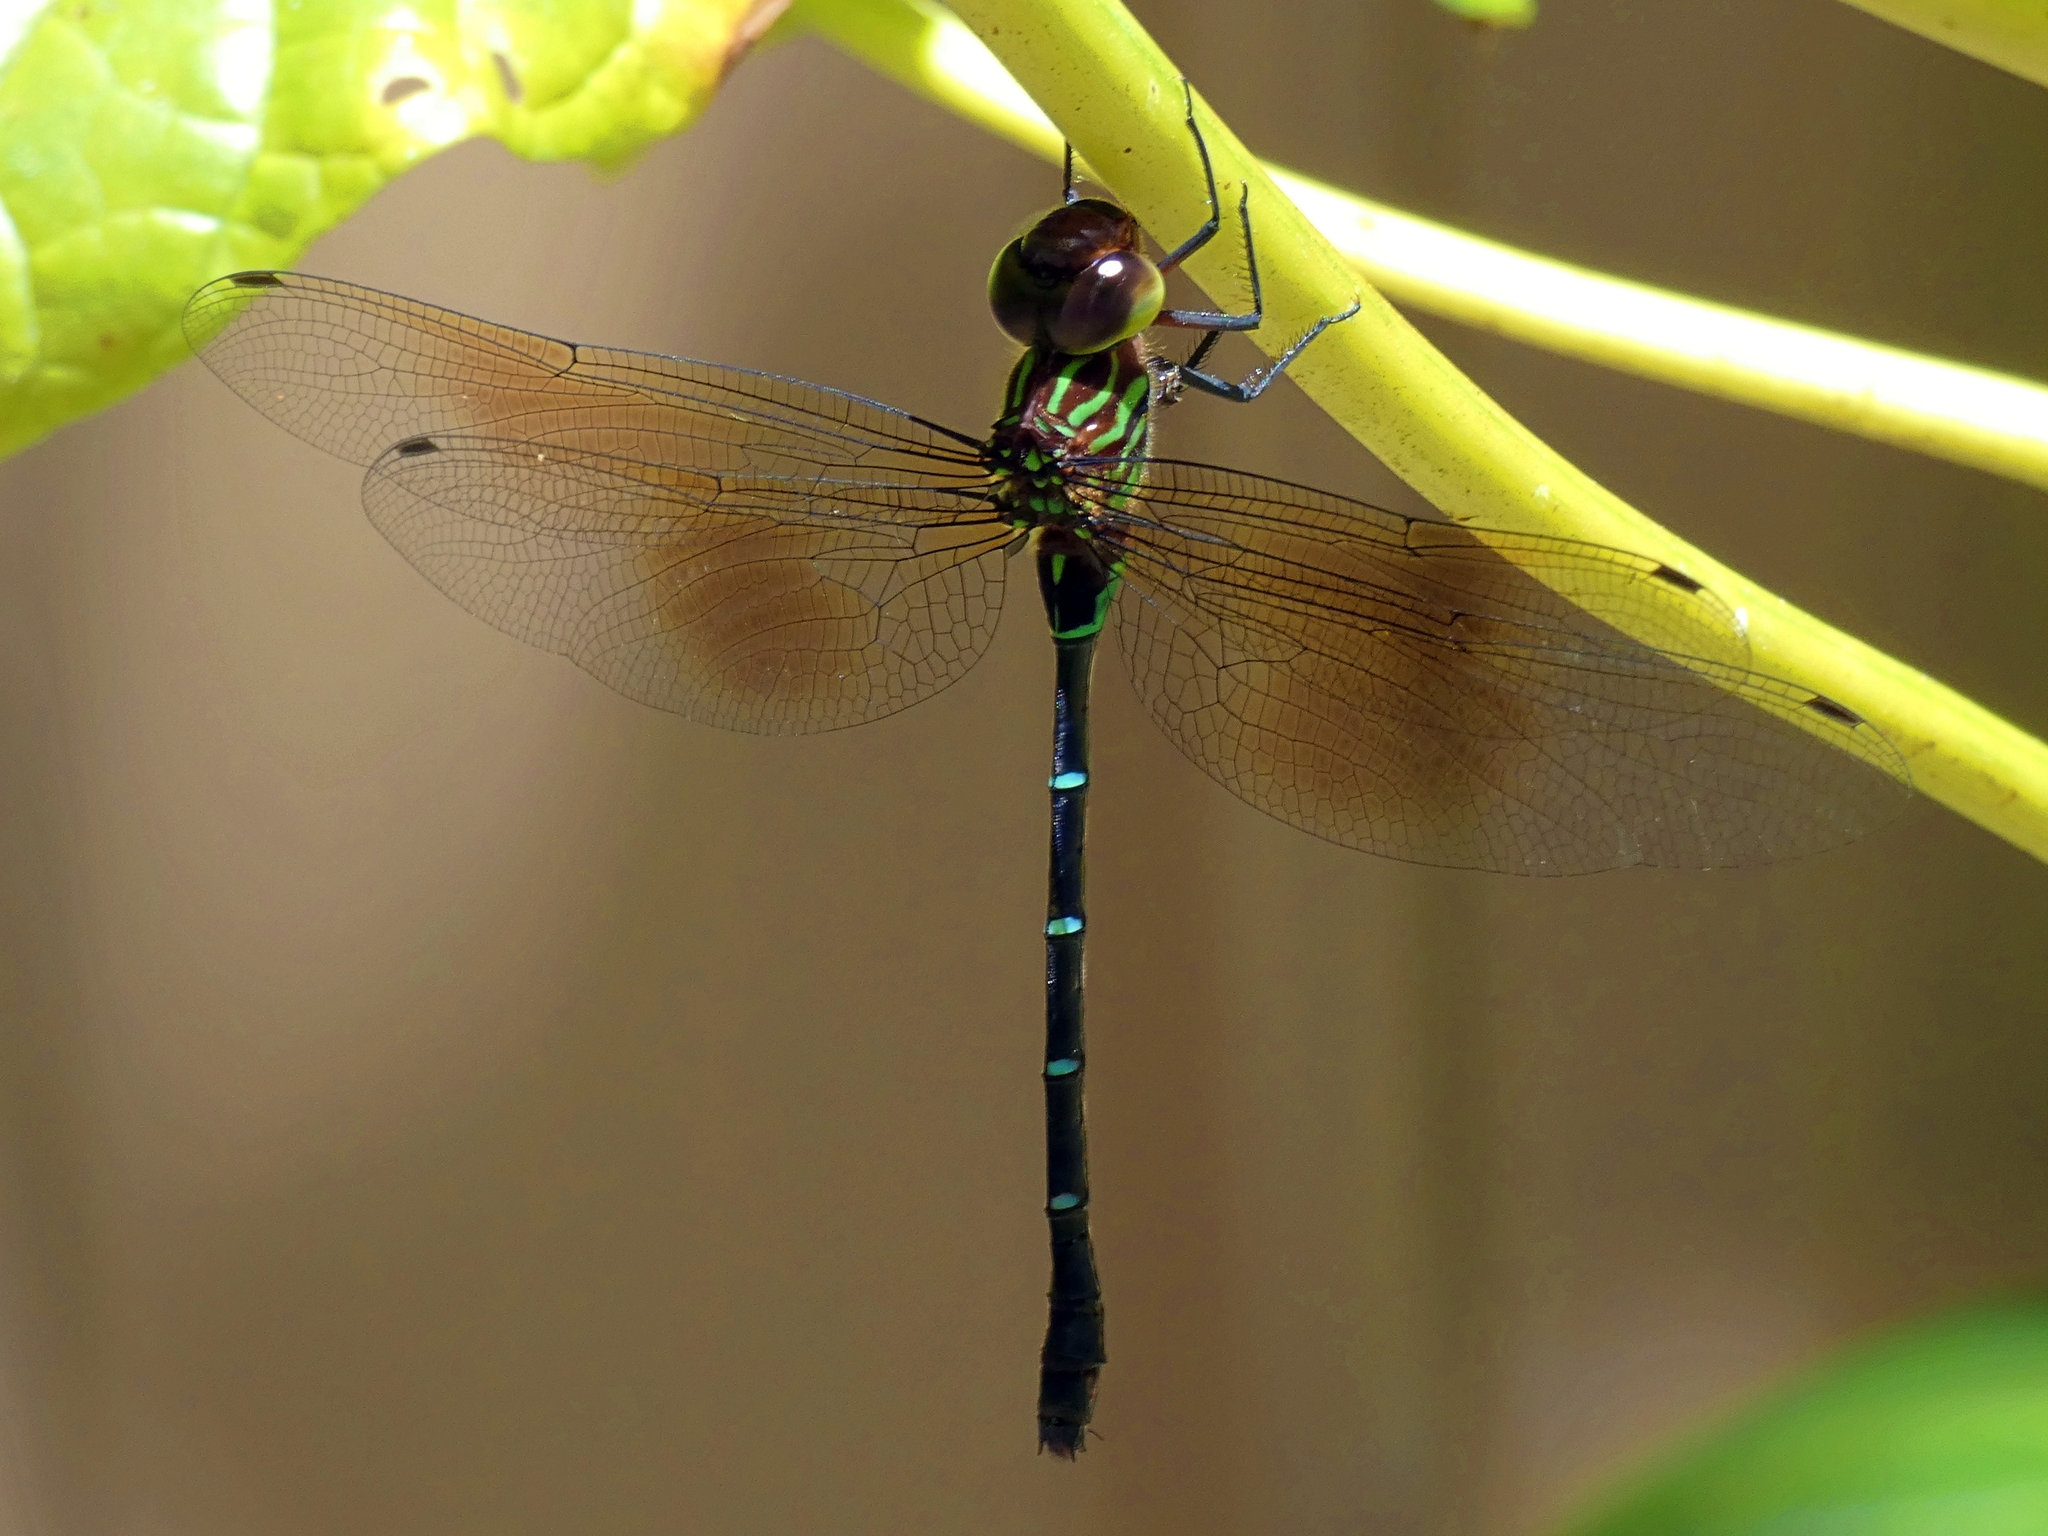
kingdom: Animalia
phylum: Arthropoda
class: Insecta
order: Odonata
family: Aeshnidae
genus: Dromaeschna
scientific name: Dromaeschna forcipata
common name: Green-striped darner
